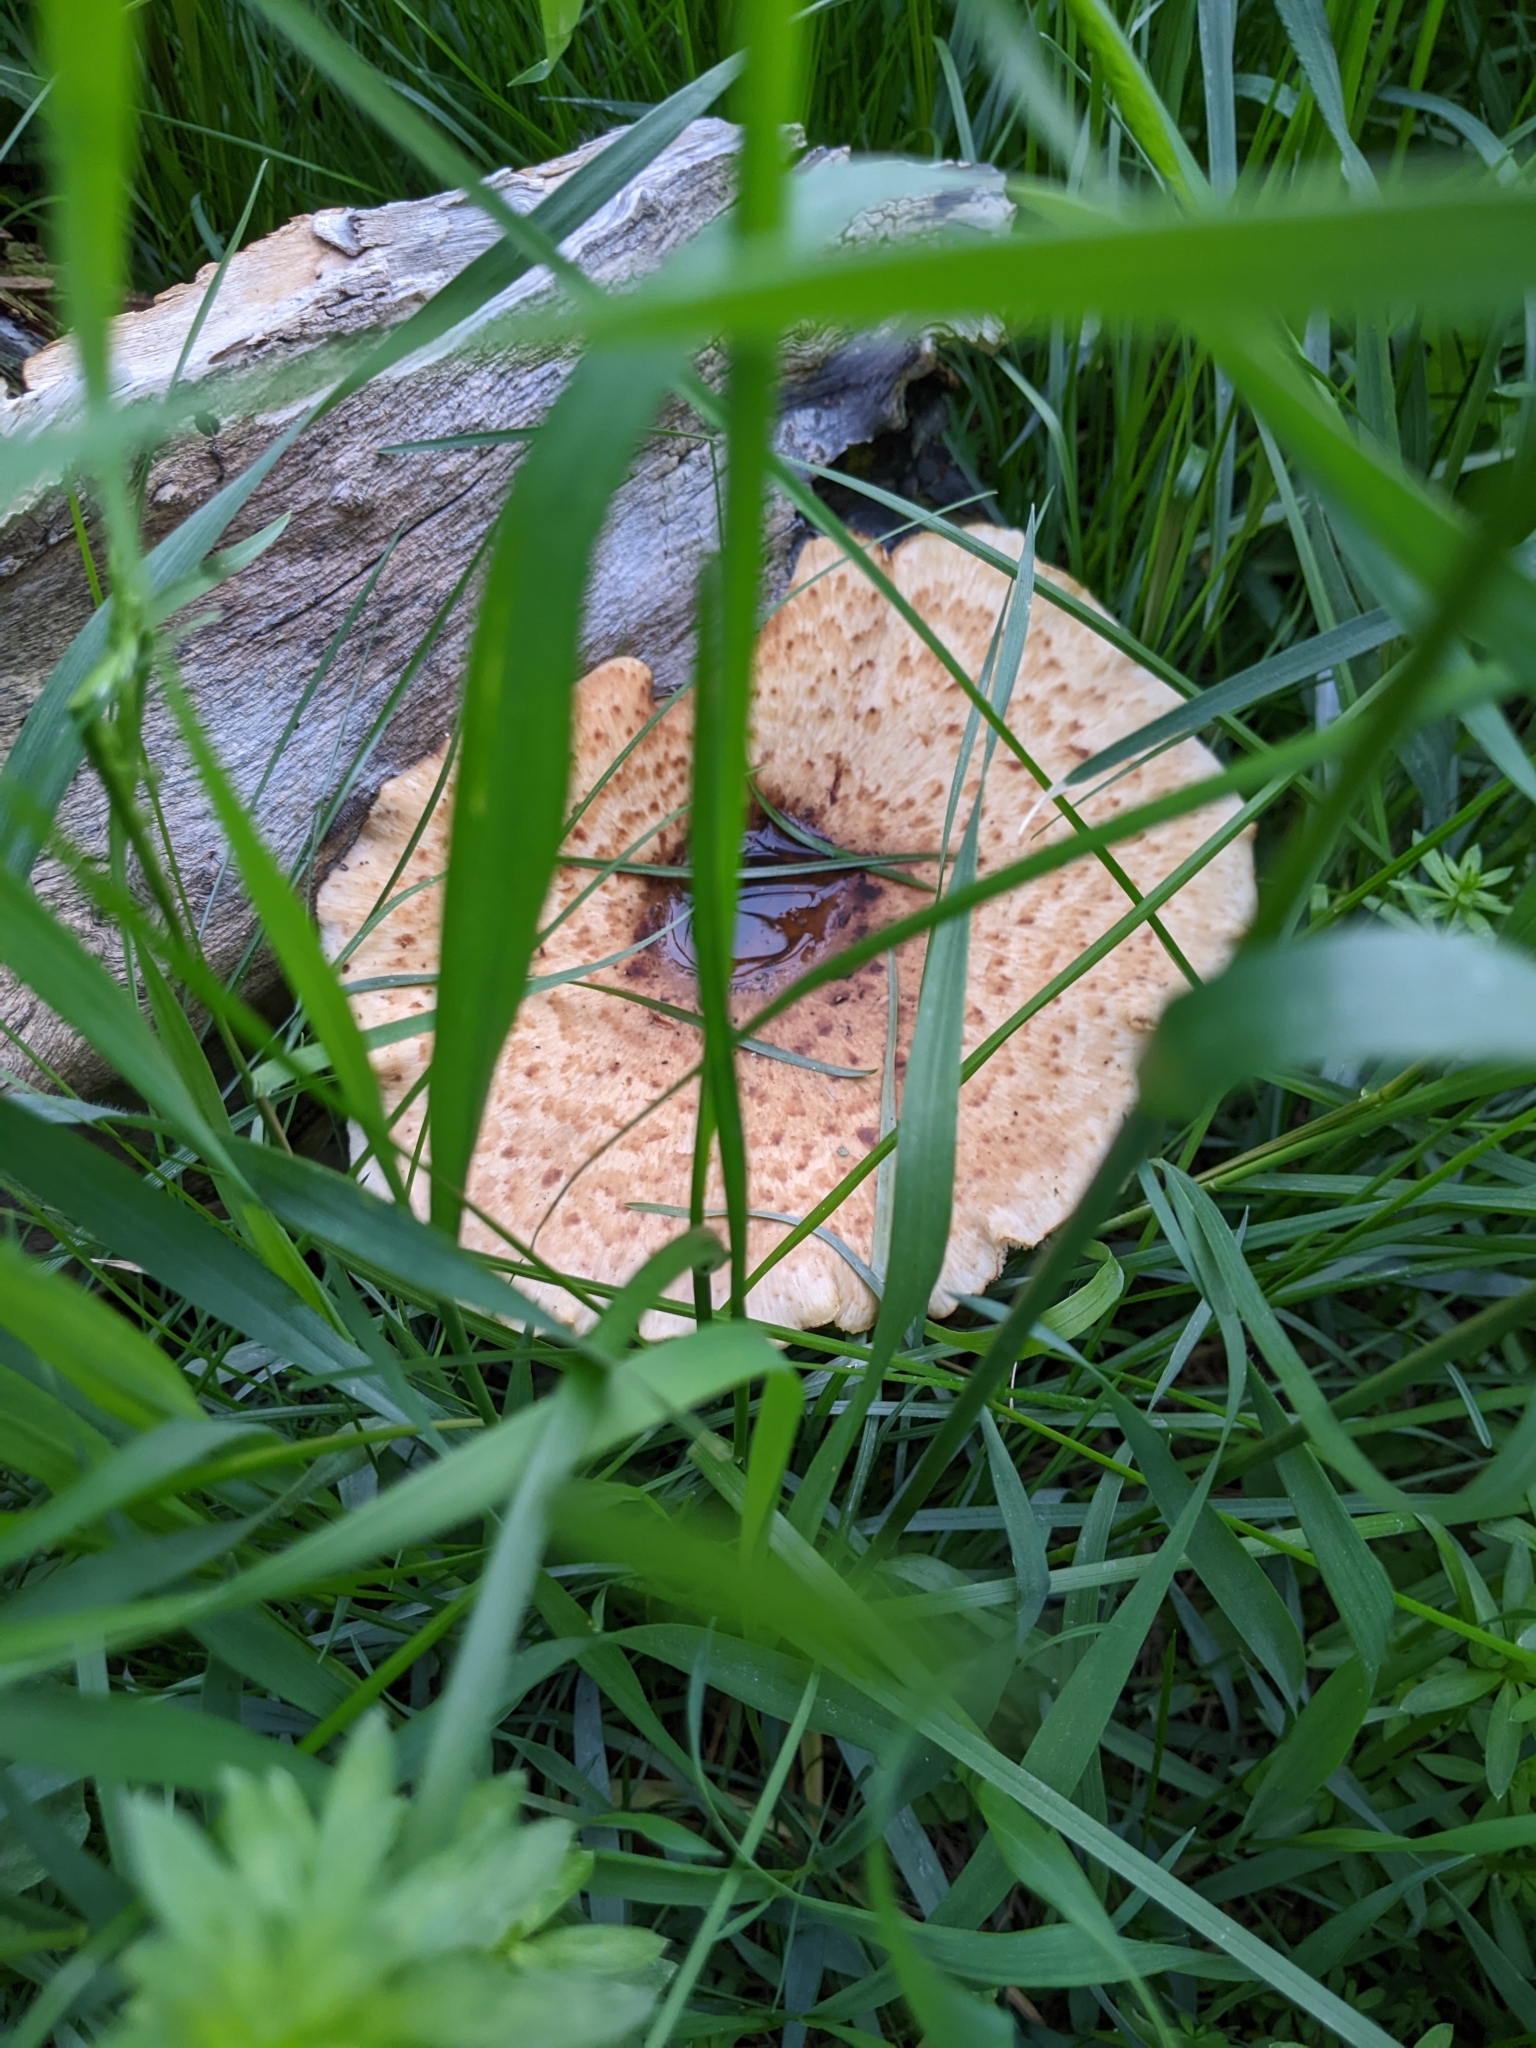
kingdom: Fungi
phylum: Basidiomycota
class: Agaricomycetes
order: Polyporales
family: Polyporaceae
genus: Cerioporus
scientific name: Cerioporus squamosus
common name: Dryad's saddle
